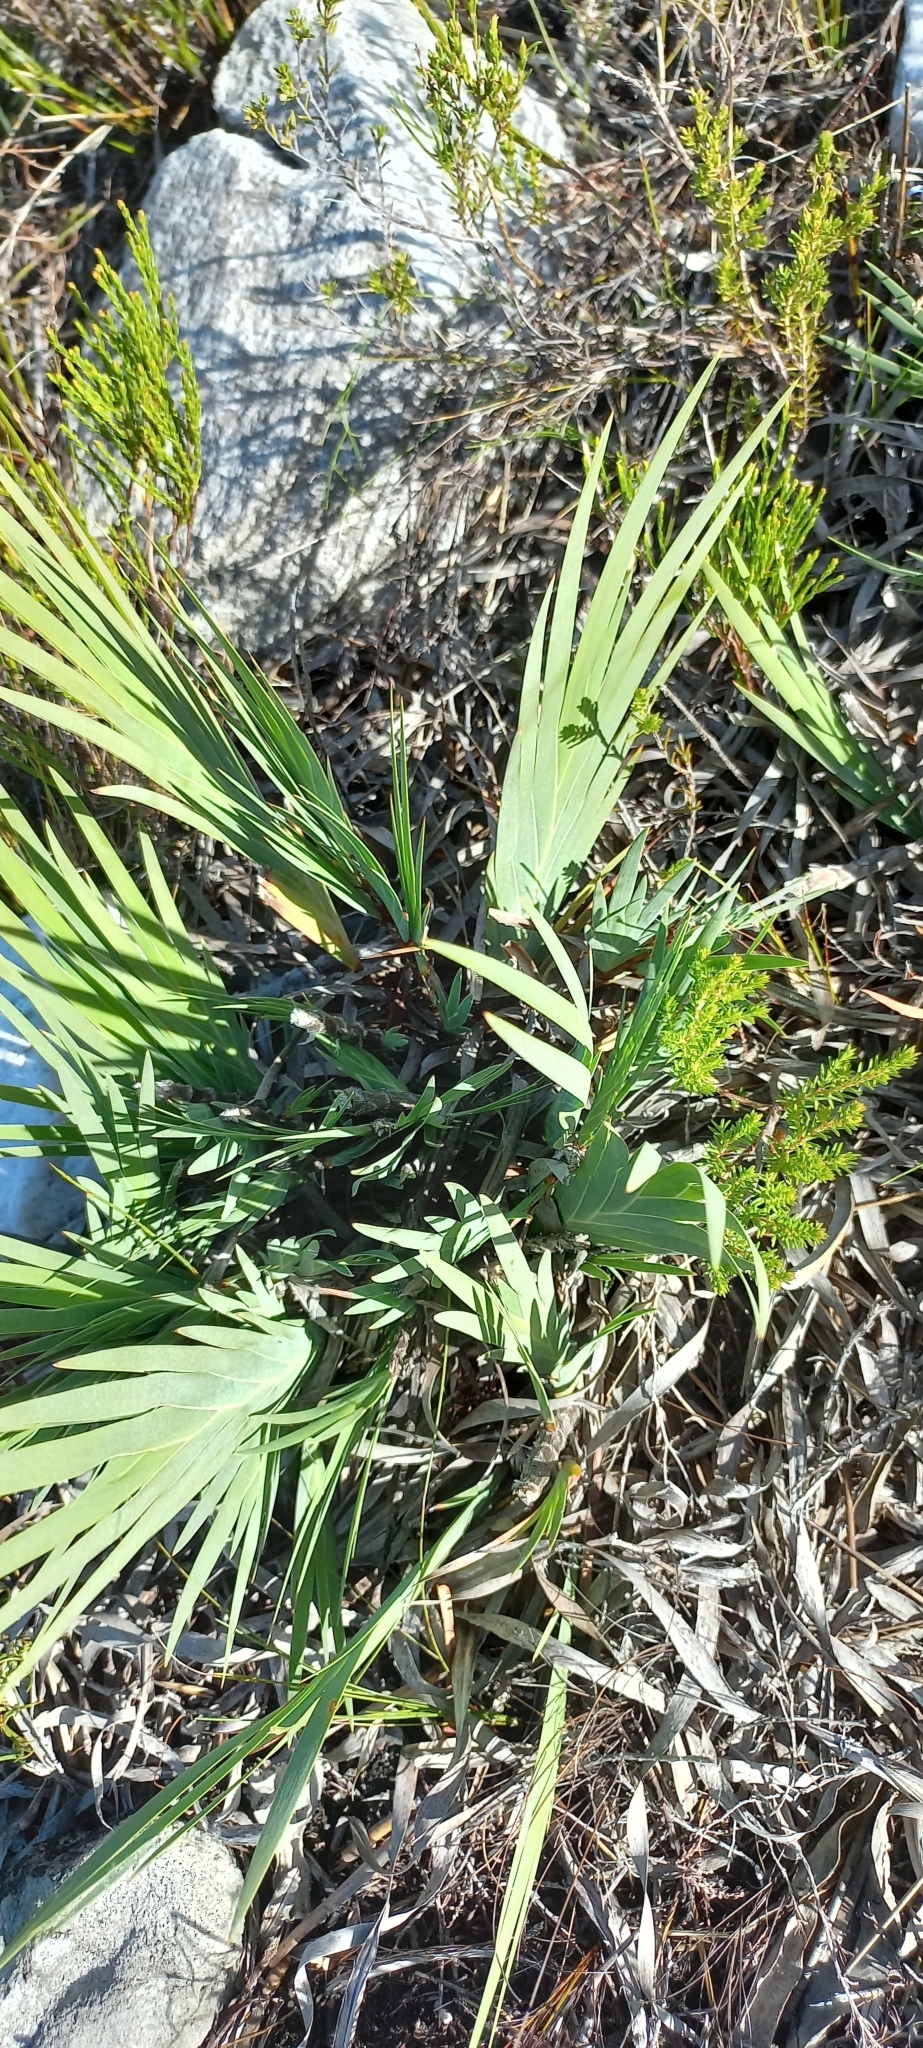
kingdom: Plantae
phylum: Tracheophyta
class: Liliopsida
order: Asparagales
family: Iridaceae
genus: Nivenia
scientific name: Nivenia stokoei
